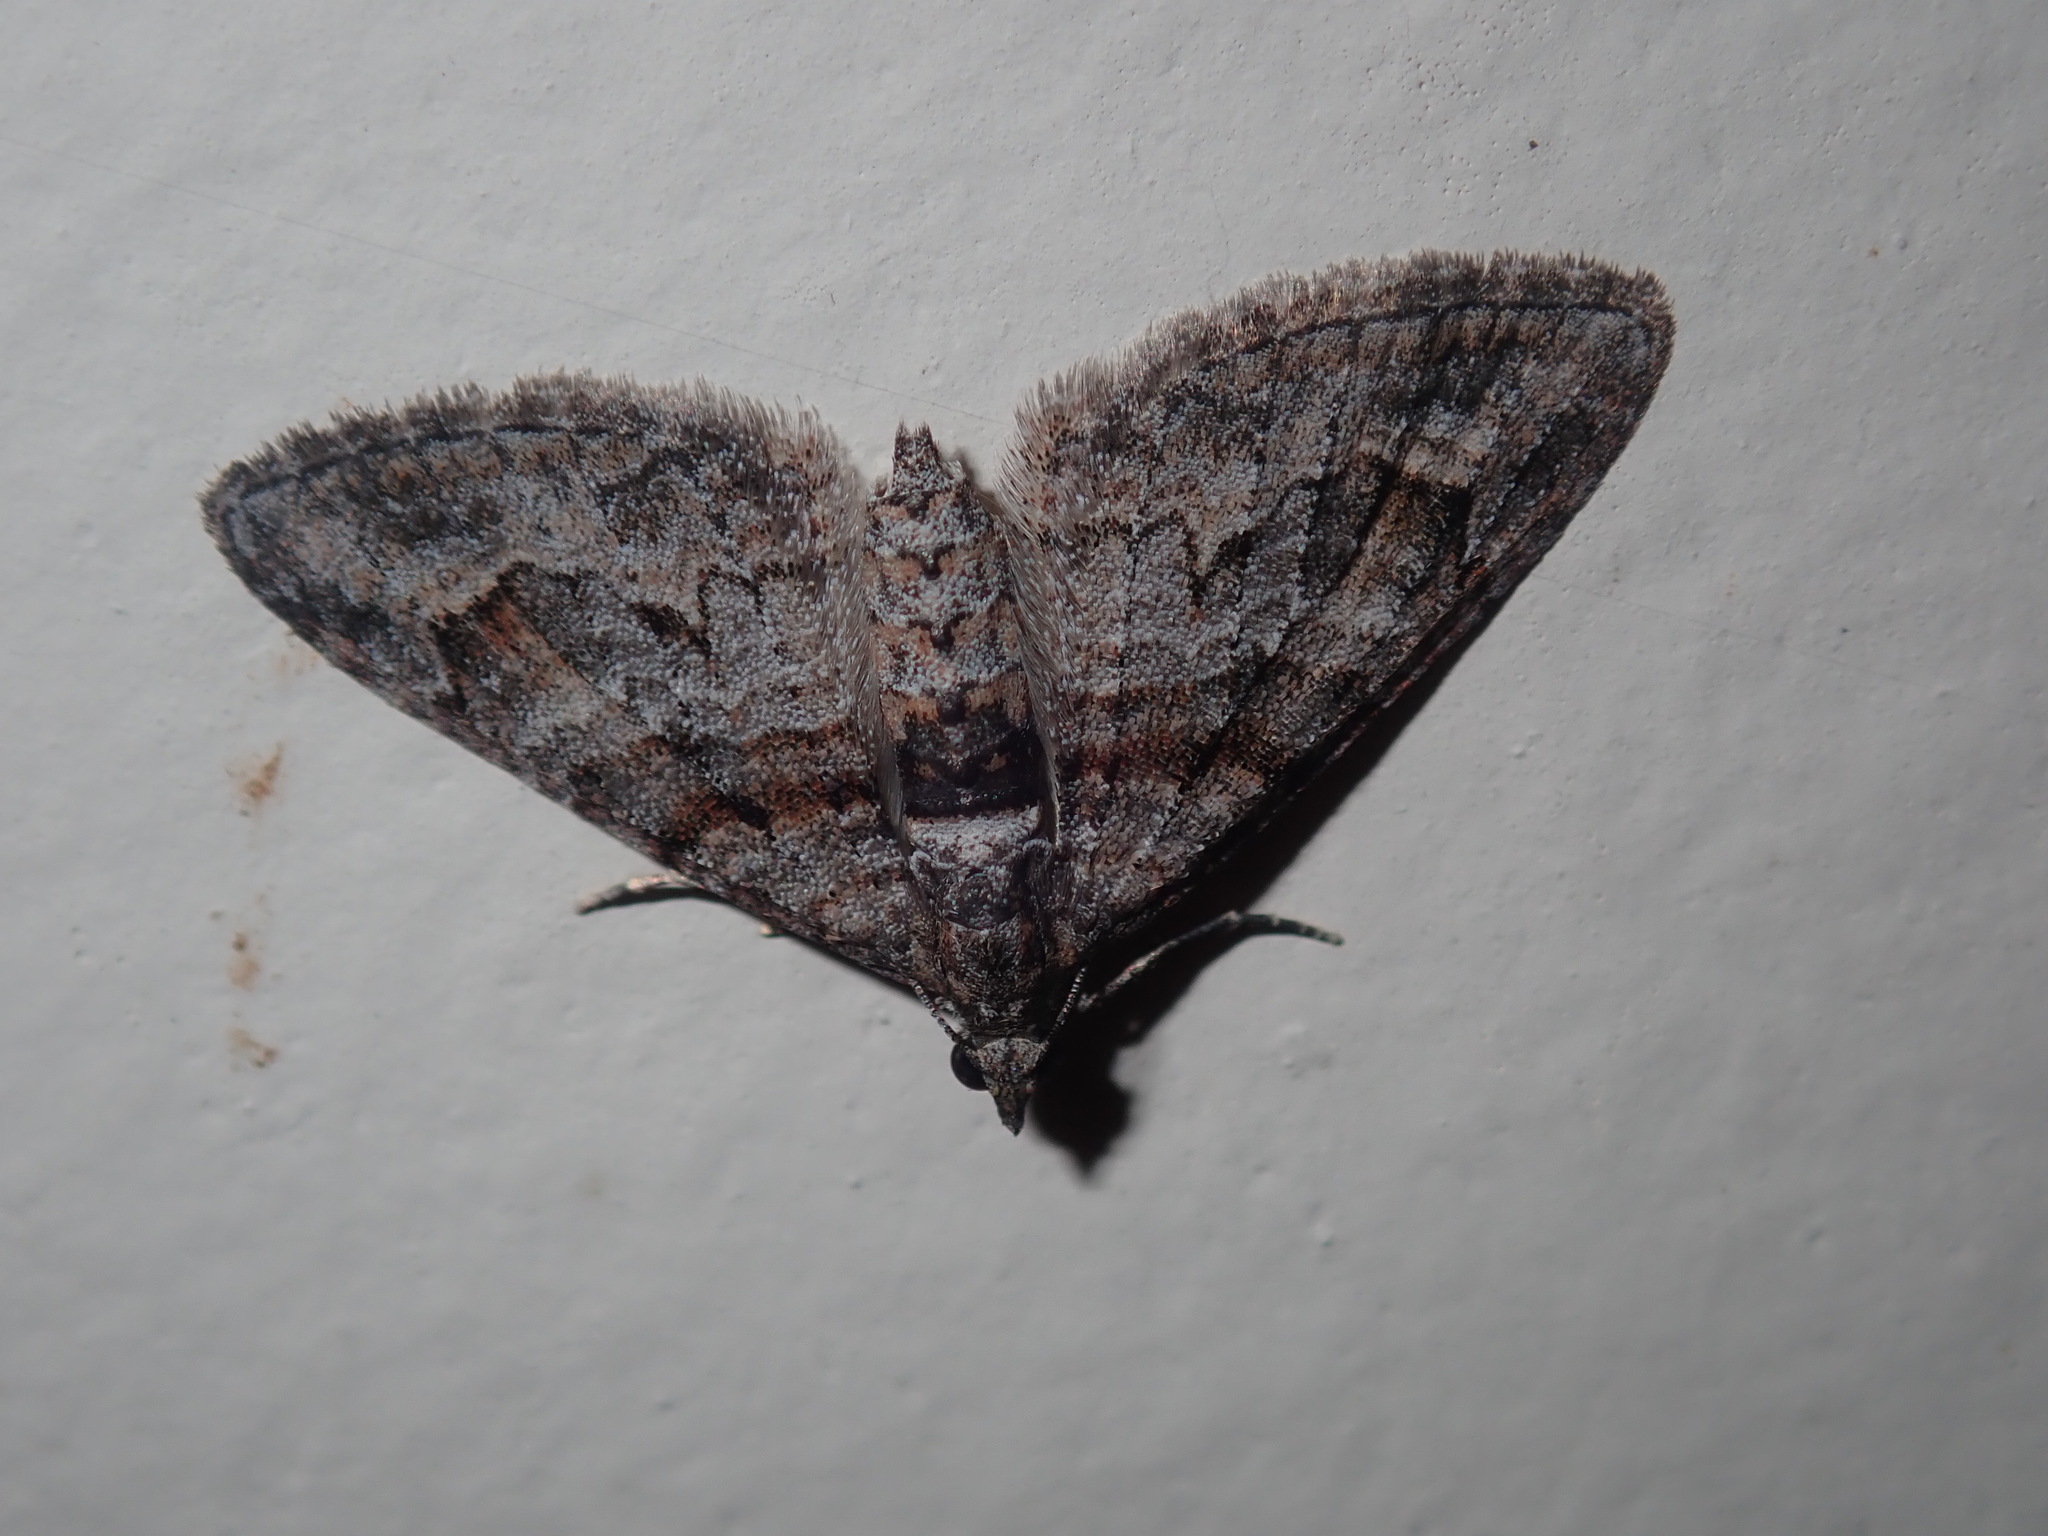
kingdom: Animalia
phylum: Arthropoda
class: Insecta
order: Lepidoptera
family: Geometridae
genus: Phrissogonus
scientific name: Phrissogonus laticostata
